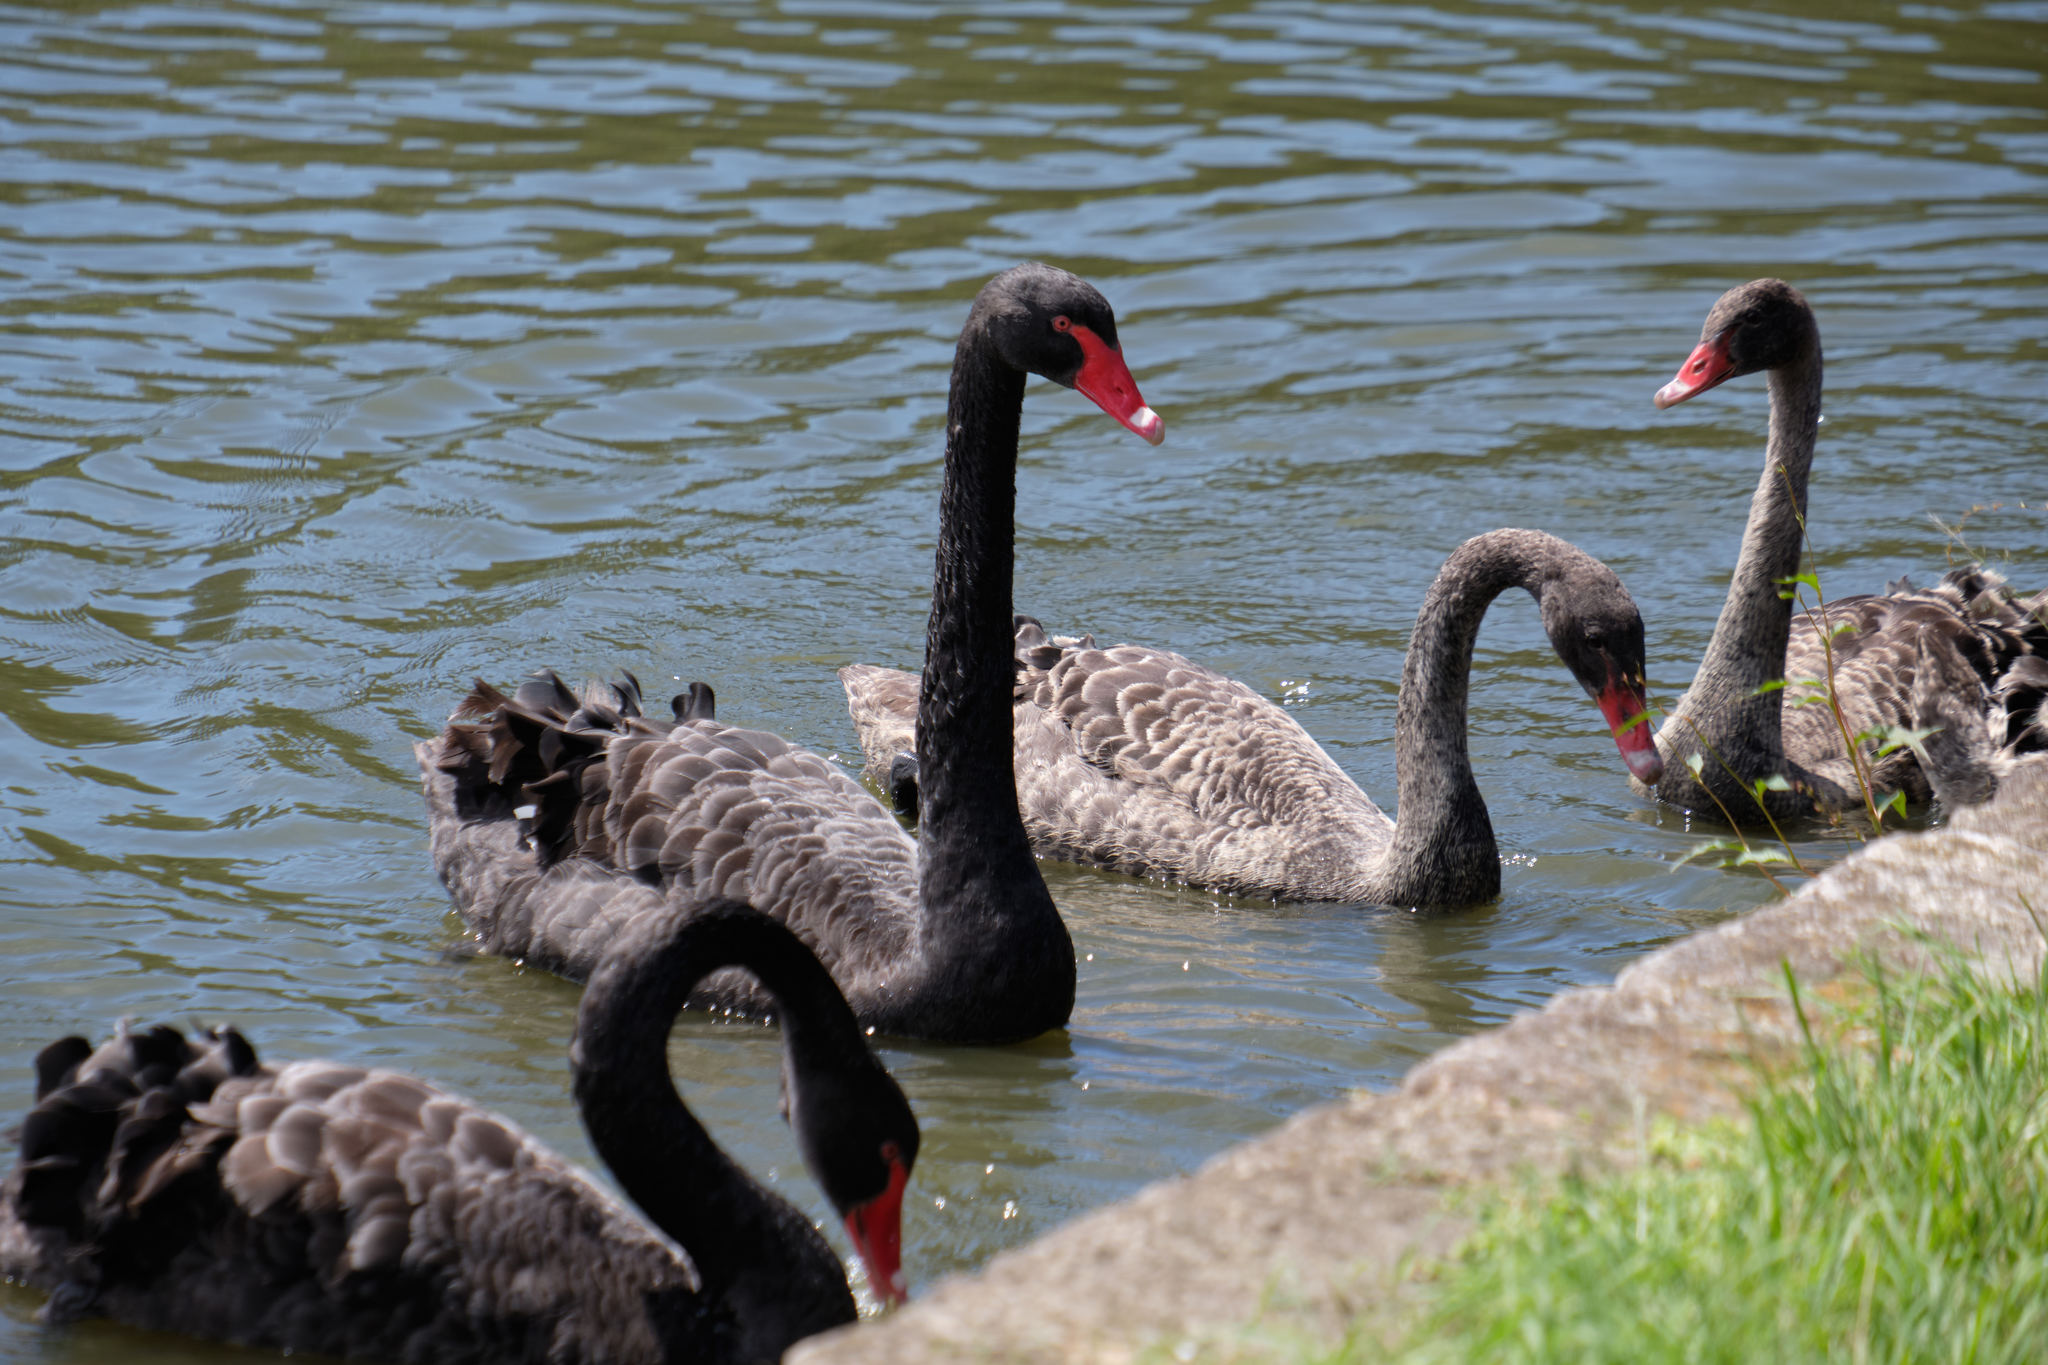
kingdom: Animalia
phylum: Chordata
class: Aves
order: Anseriformes
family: Anatidae
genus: Cygnus
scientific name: Cygnus atratus
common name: Black swan
